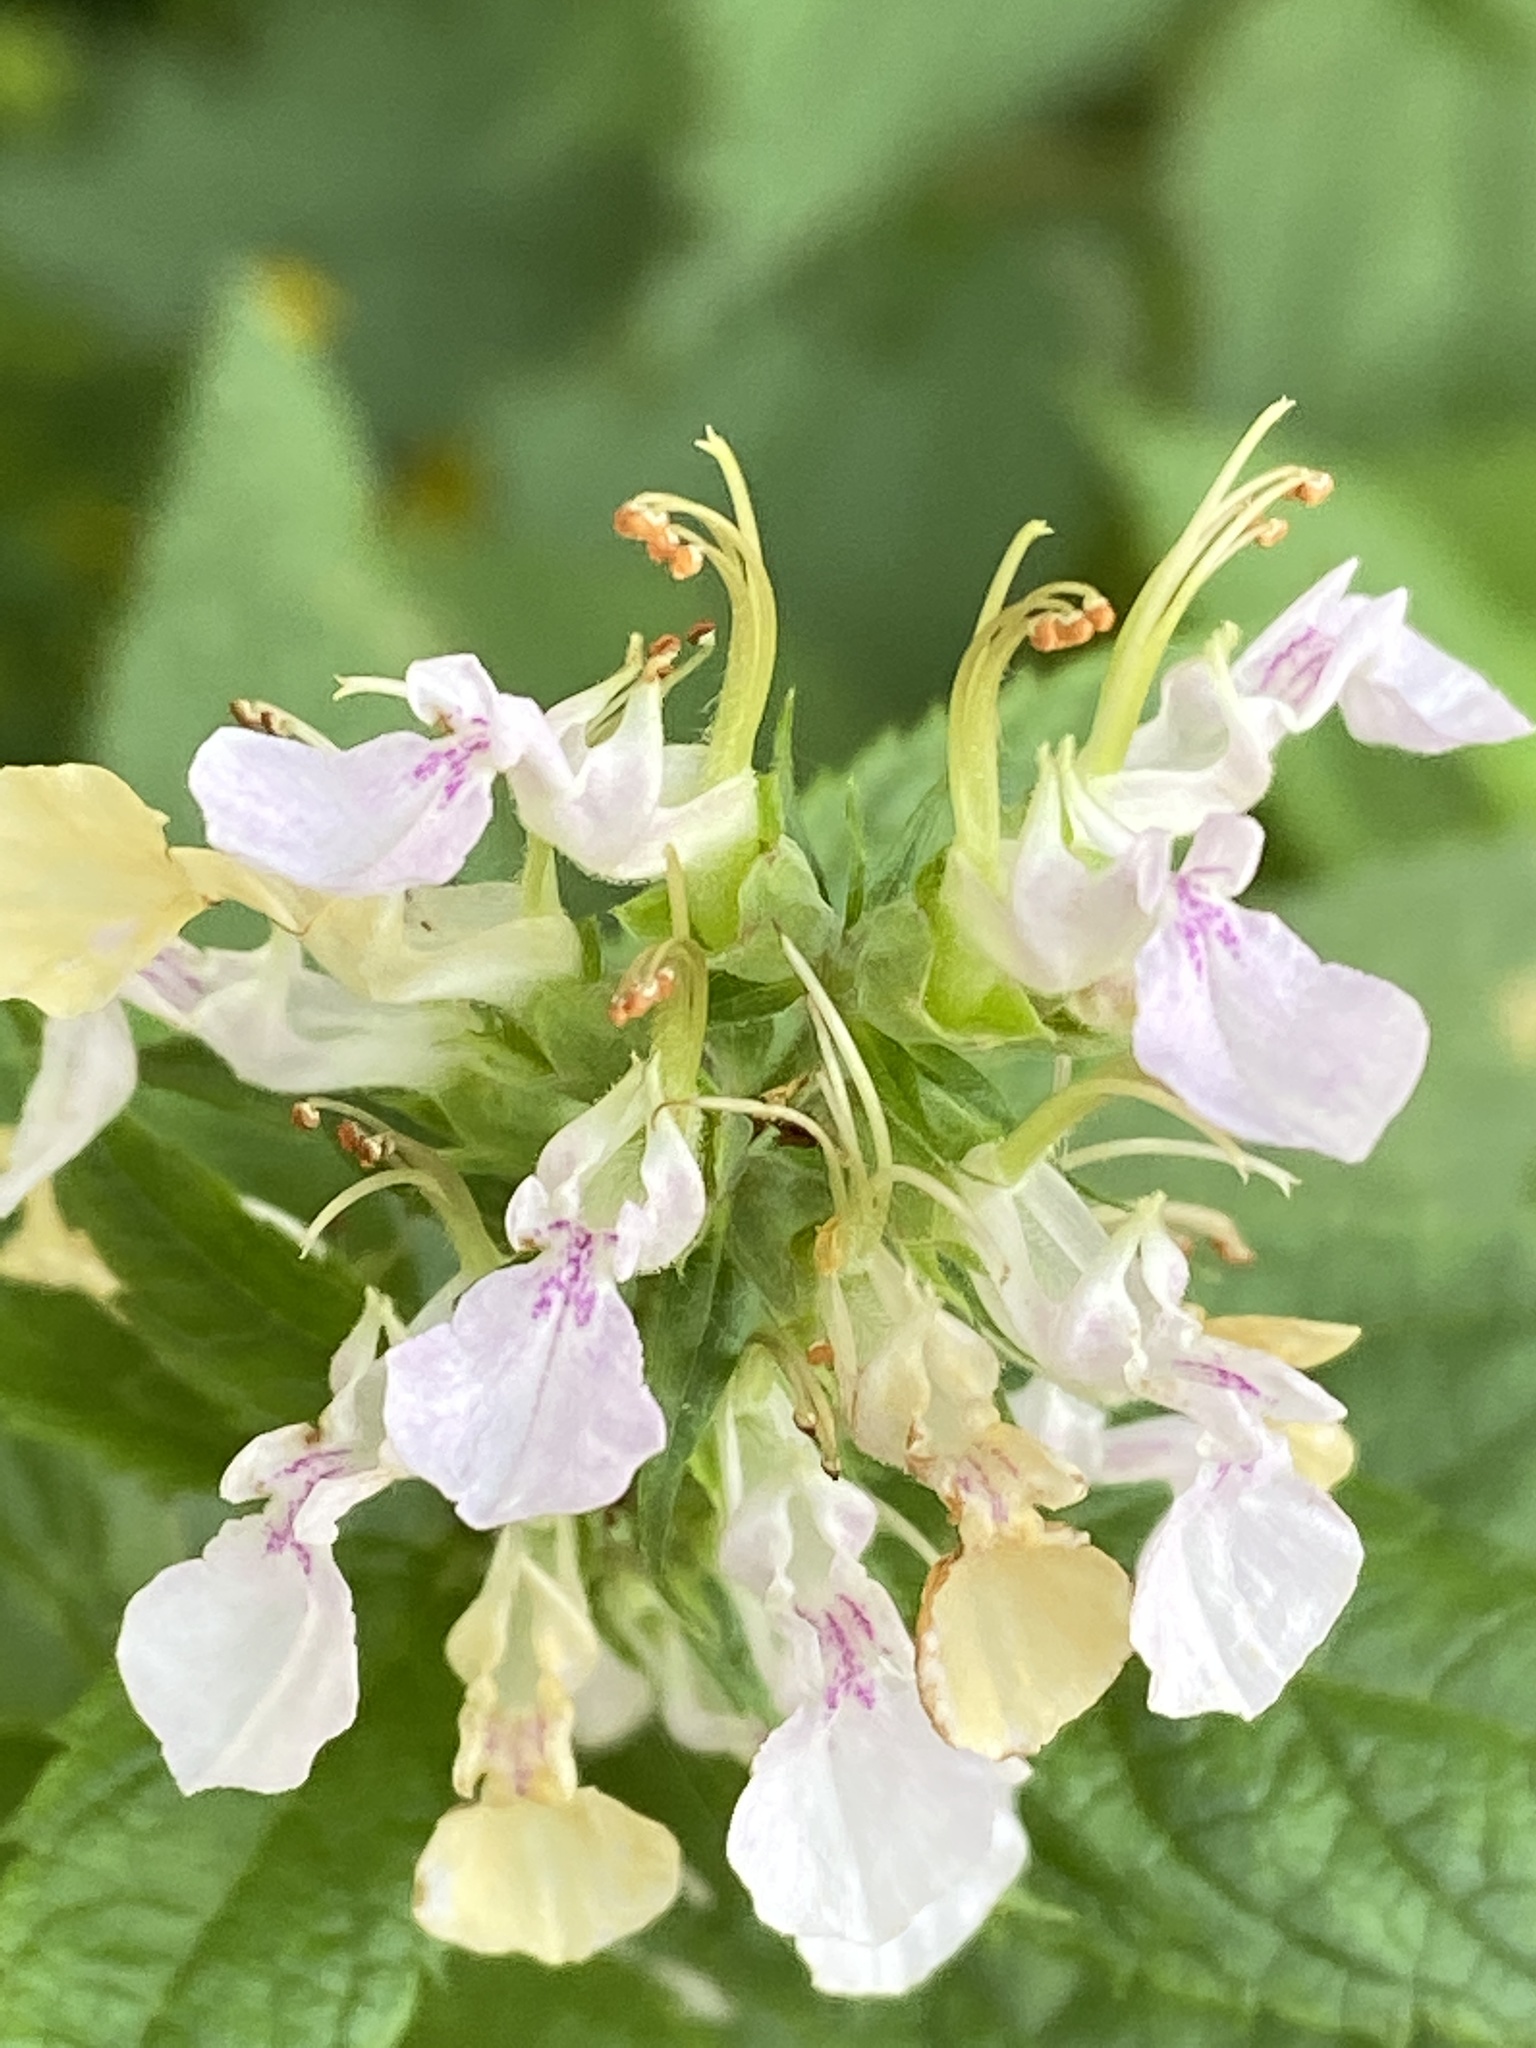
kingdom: Plantae
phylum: Tracheophyta
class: Magnoliopsida
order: Lamiales
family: Lamiaceae
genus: Teucrium
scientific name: Teucrium canadense
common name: American germander
